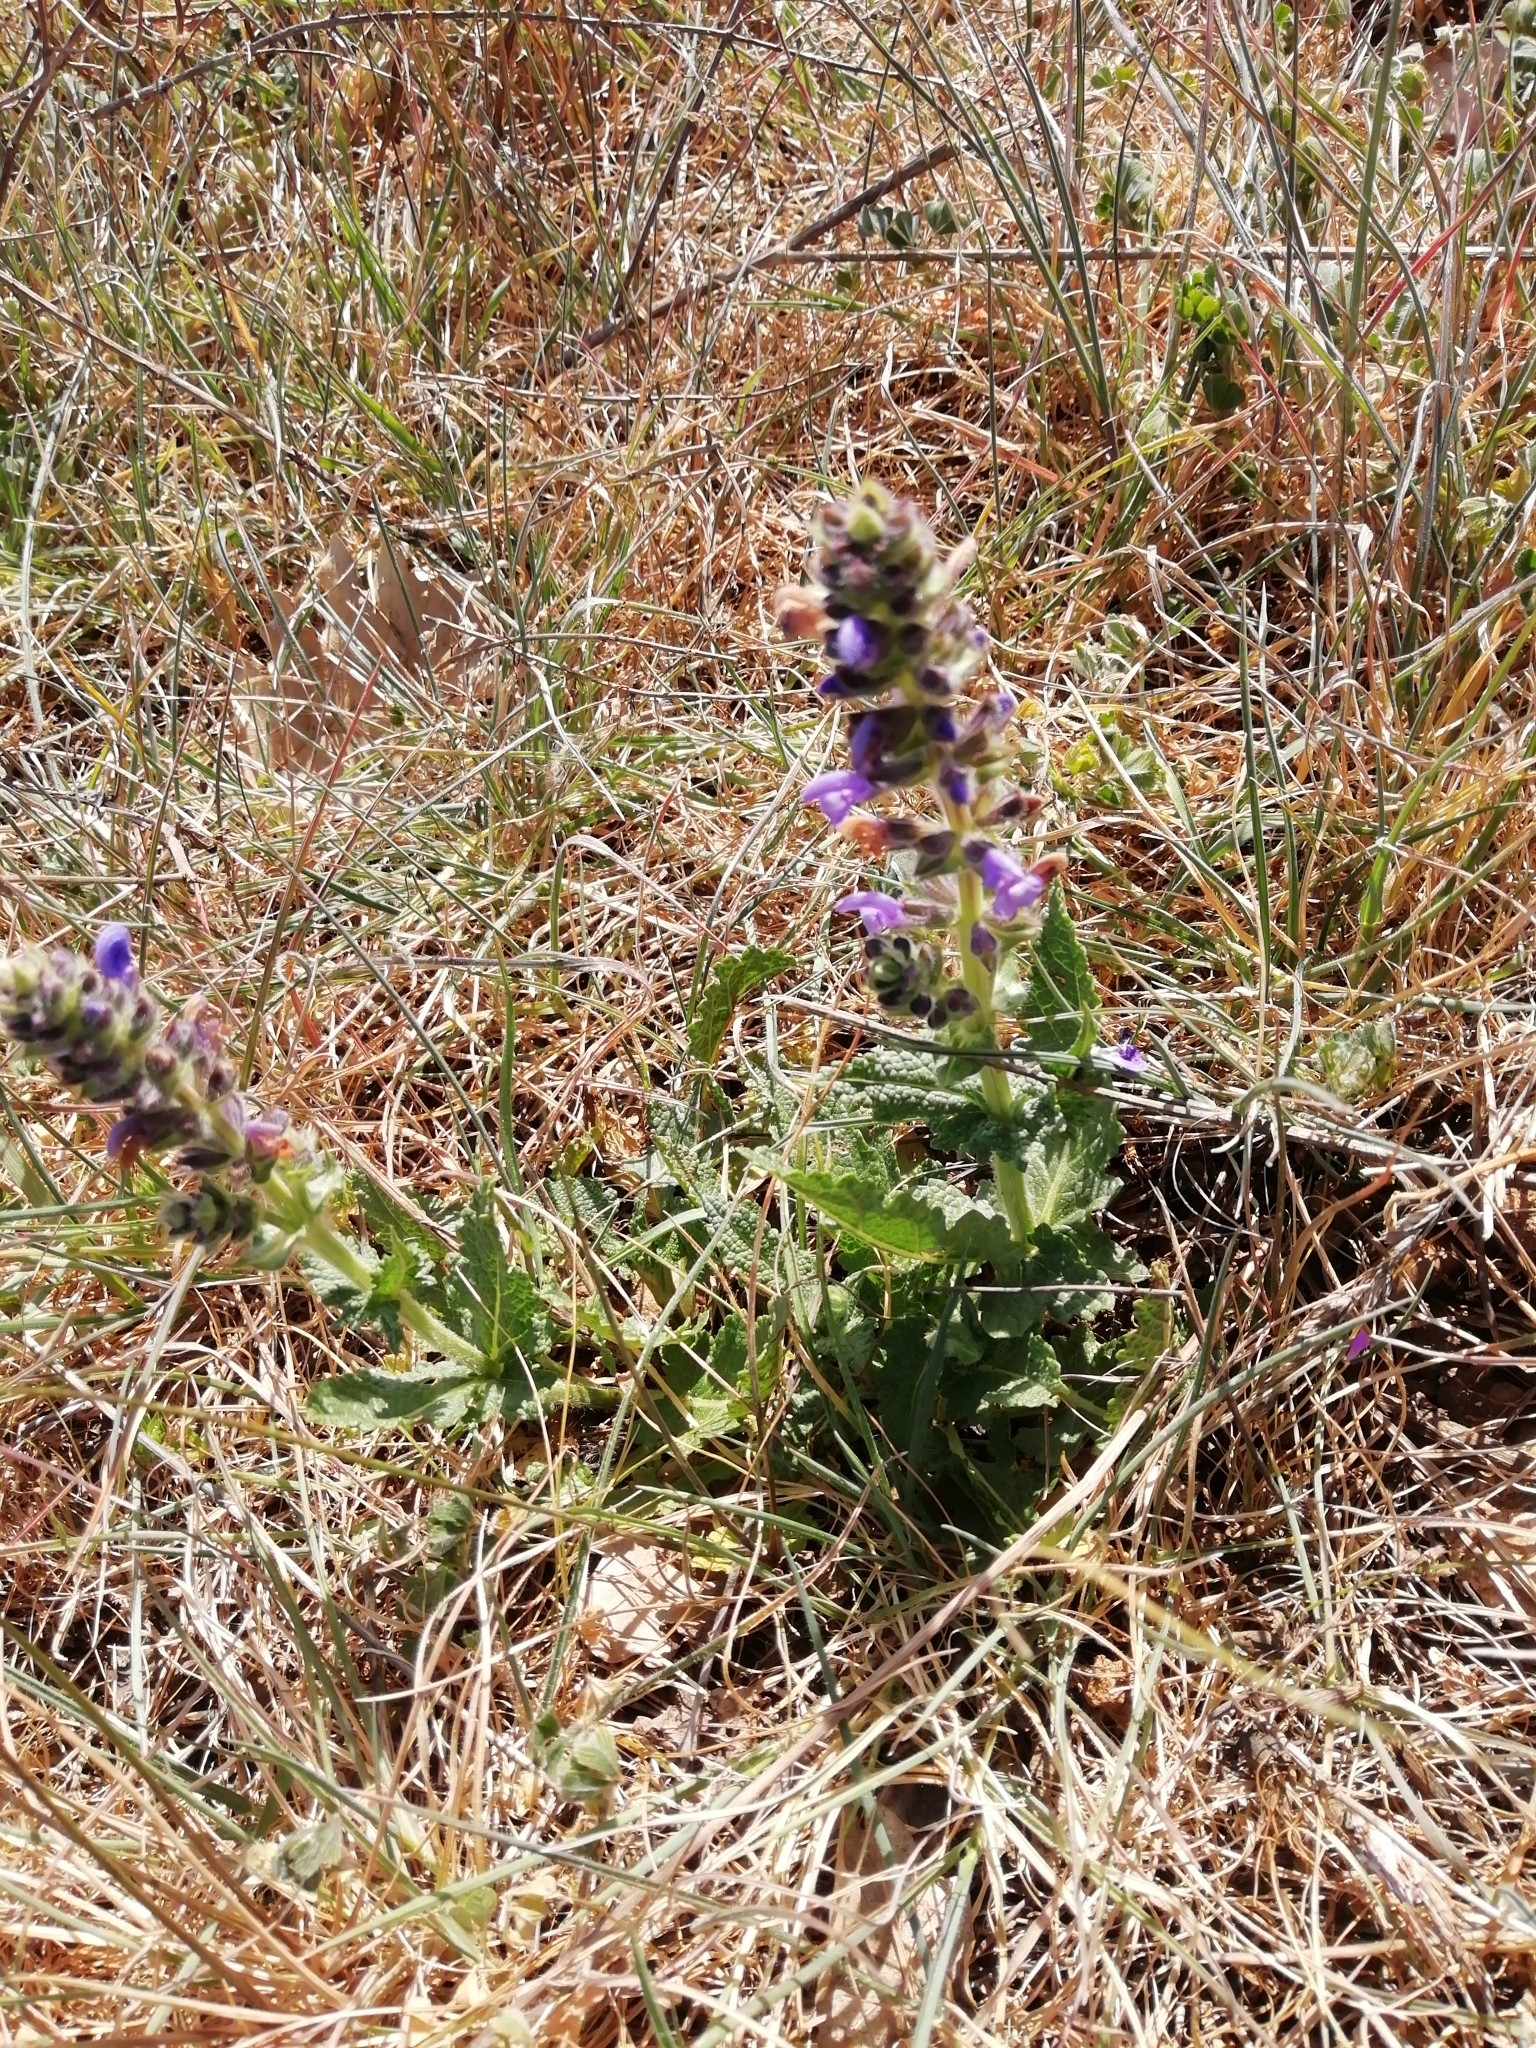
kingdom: Plantae
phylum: Tracheophyta
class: Magnoliopsida
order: Lamiales
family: Lamiaceae
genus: Salvia
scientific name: Salvia verbenaca
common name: Wild clary
